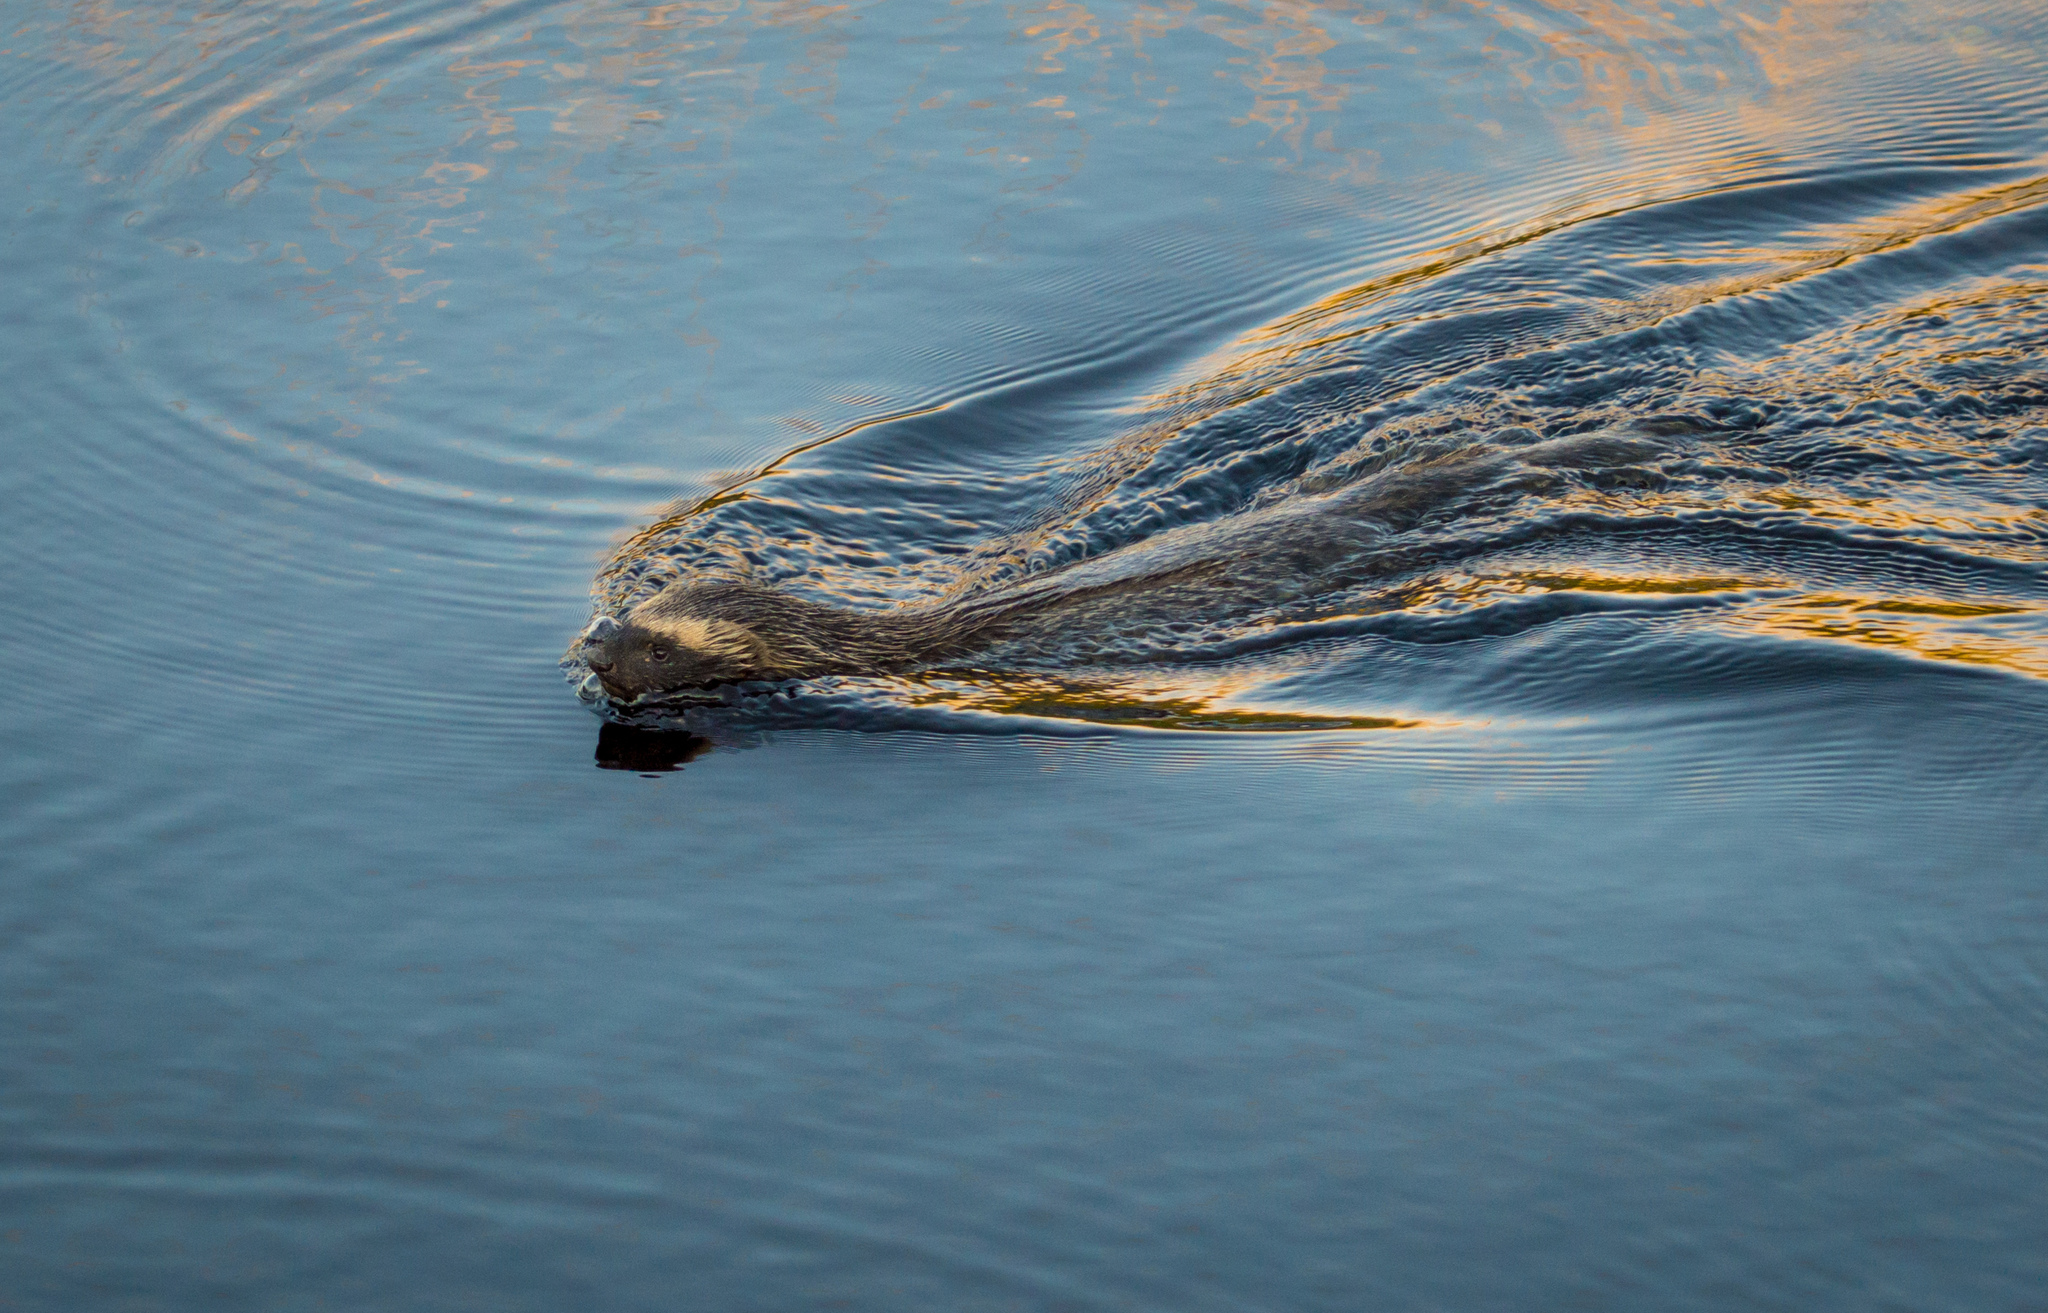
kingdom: Animalia
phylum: Chordata
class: Mammalia
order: Carnivora
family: Mustelidae
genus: Galictis
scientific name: Galictis cuja
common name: Lesser grison
